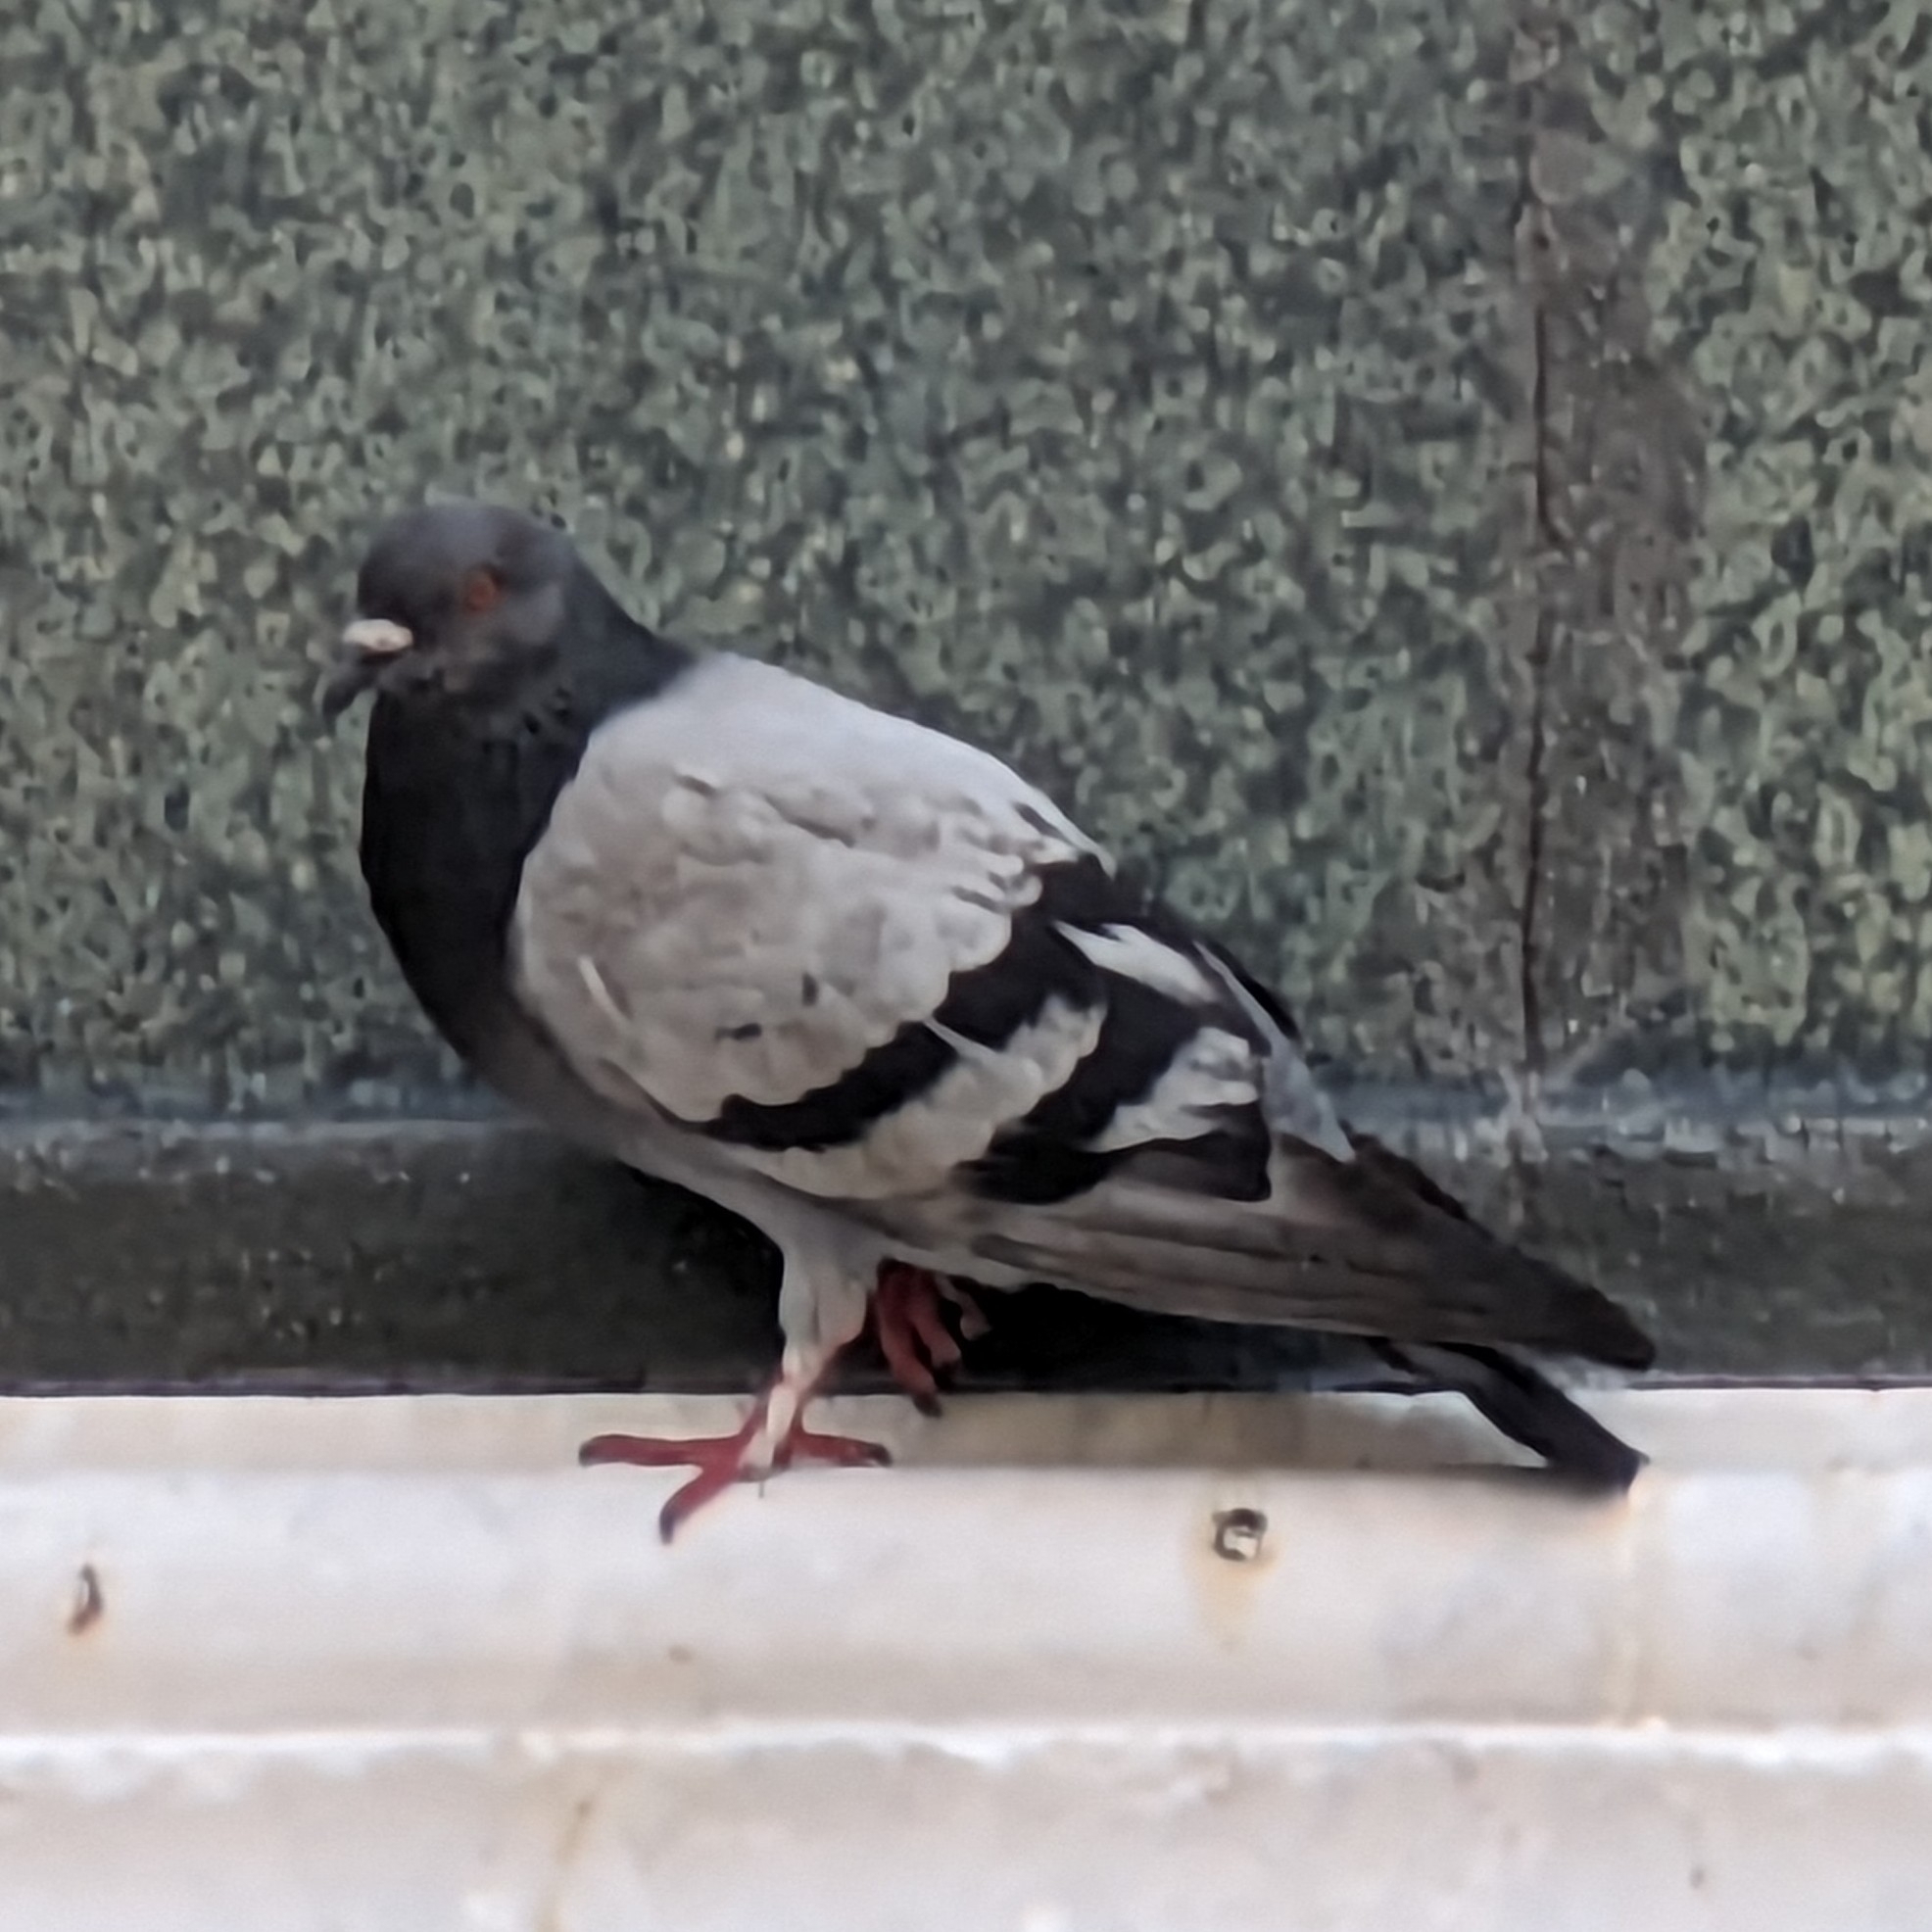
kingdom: Animalia
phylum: Chordata
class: Aves
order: Columbiformes
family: Columbidae
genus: Columba
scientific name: Columba livia
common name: Rock pigeon
